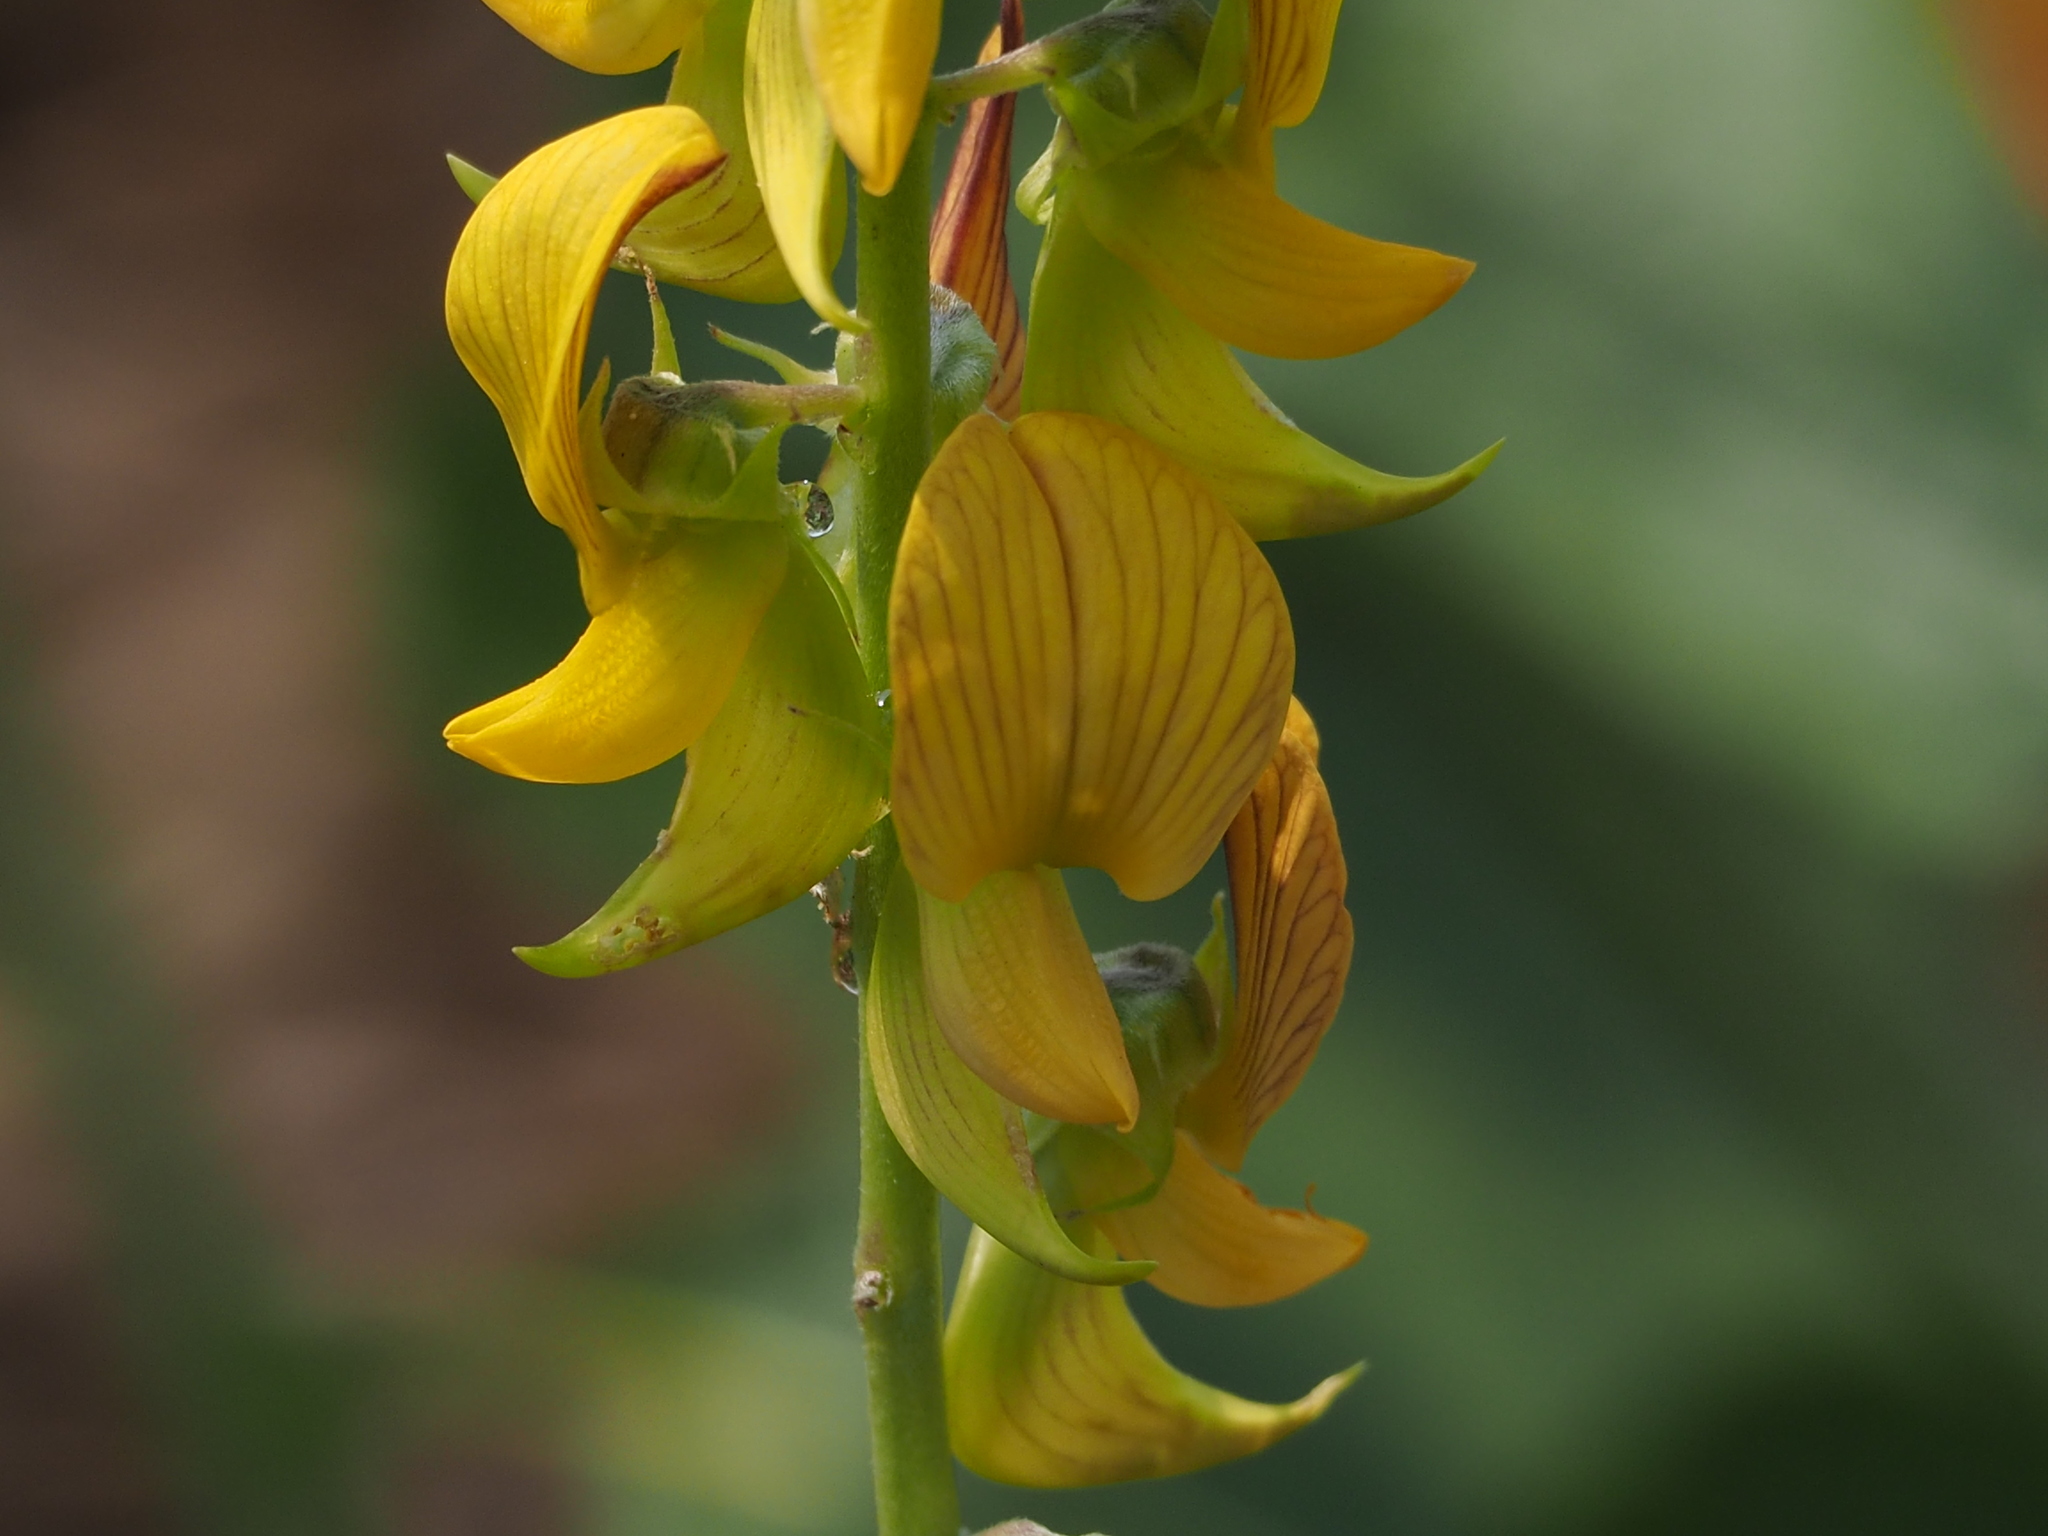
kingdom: Plantae
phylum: Tracheophyta
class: Magnoliopsida
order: Fabales
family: Fabaceae
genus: Crotalaria
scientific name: Crotalaria pallida
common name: Smooth rattlebox
